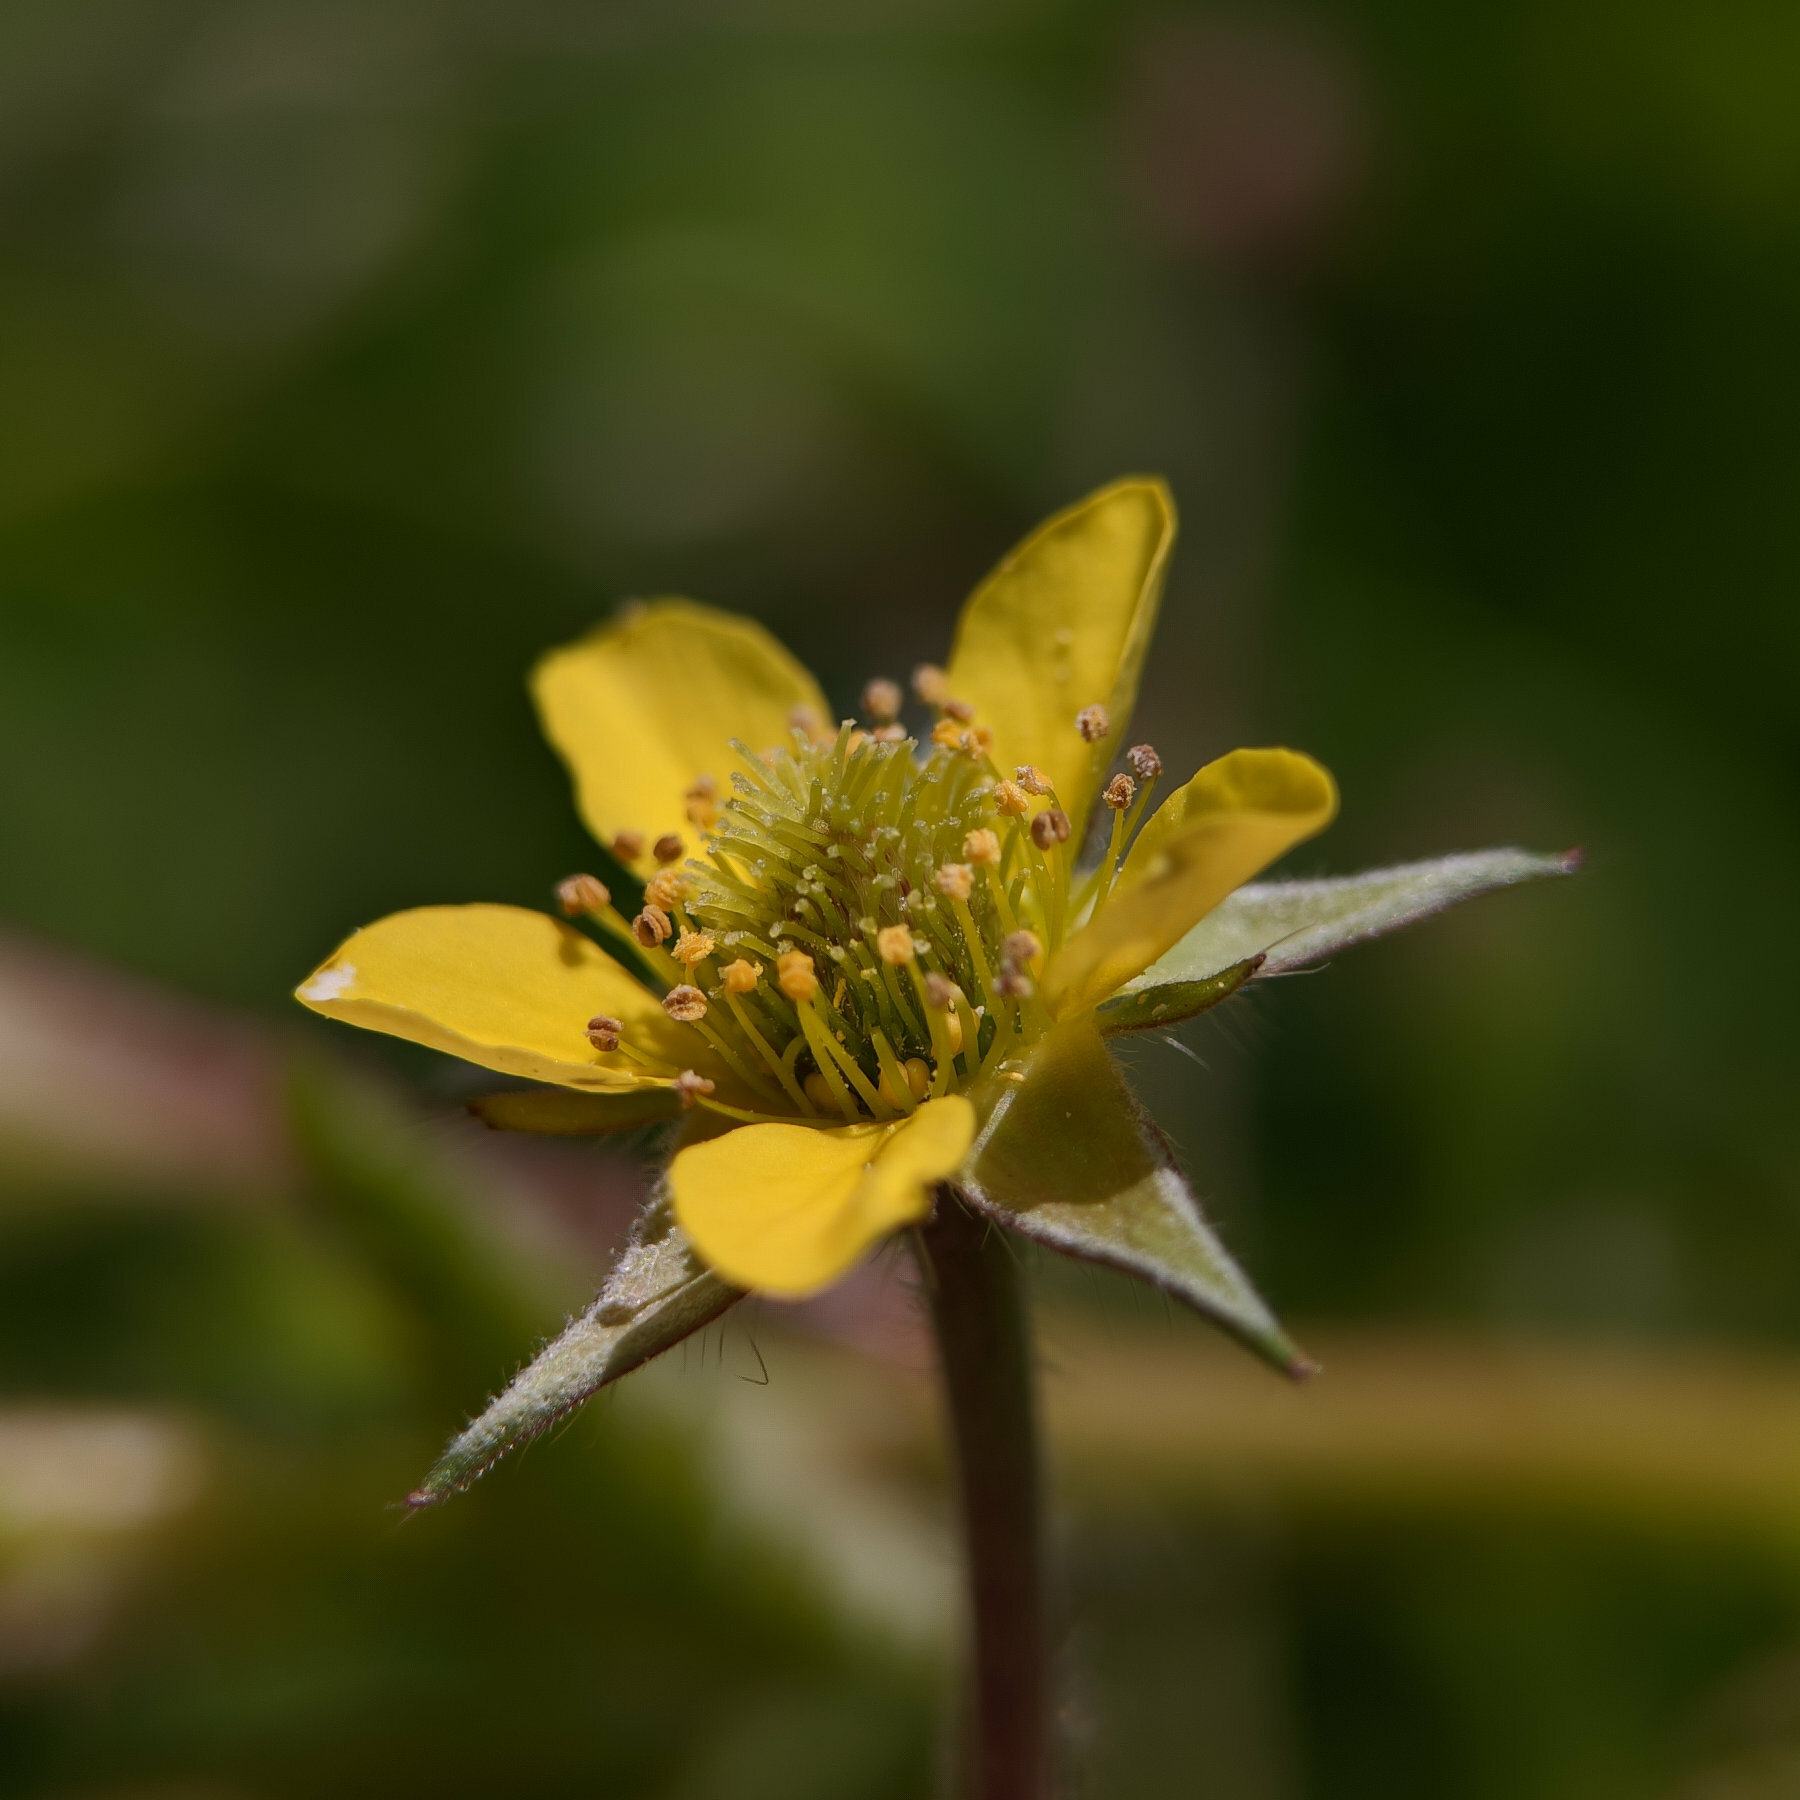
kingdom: Plantae
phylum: Tracheophyta
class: Magnoliopsida
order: Rosales
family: Rosaceae
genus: Geum
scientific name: Geum urbanum
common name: Wood avens
